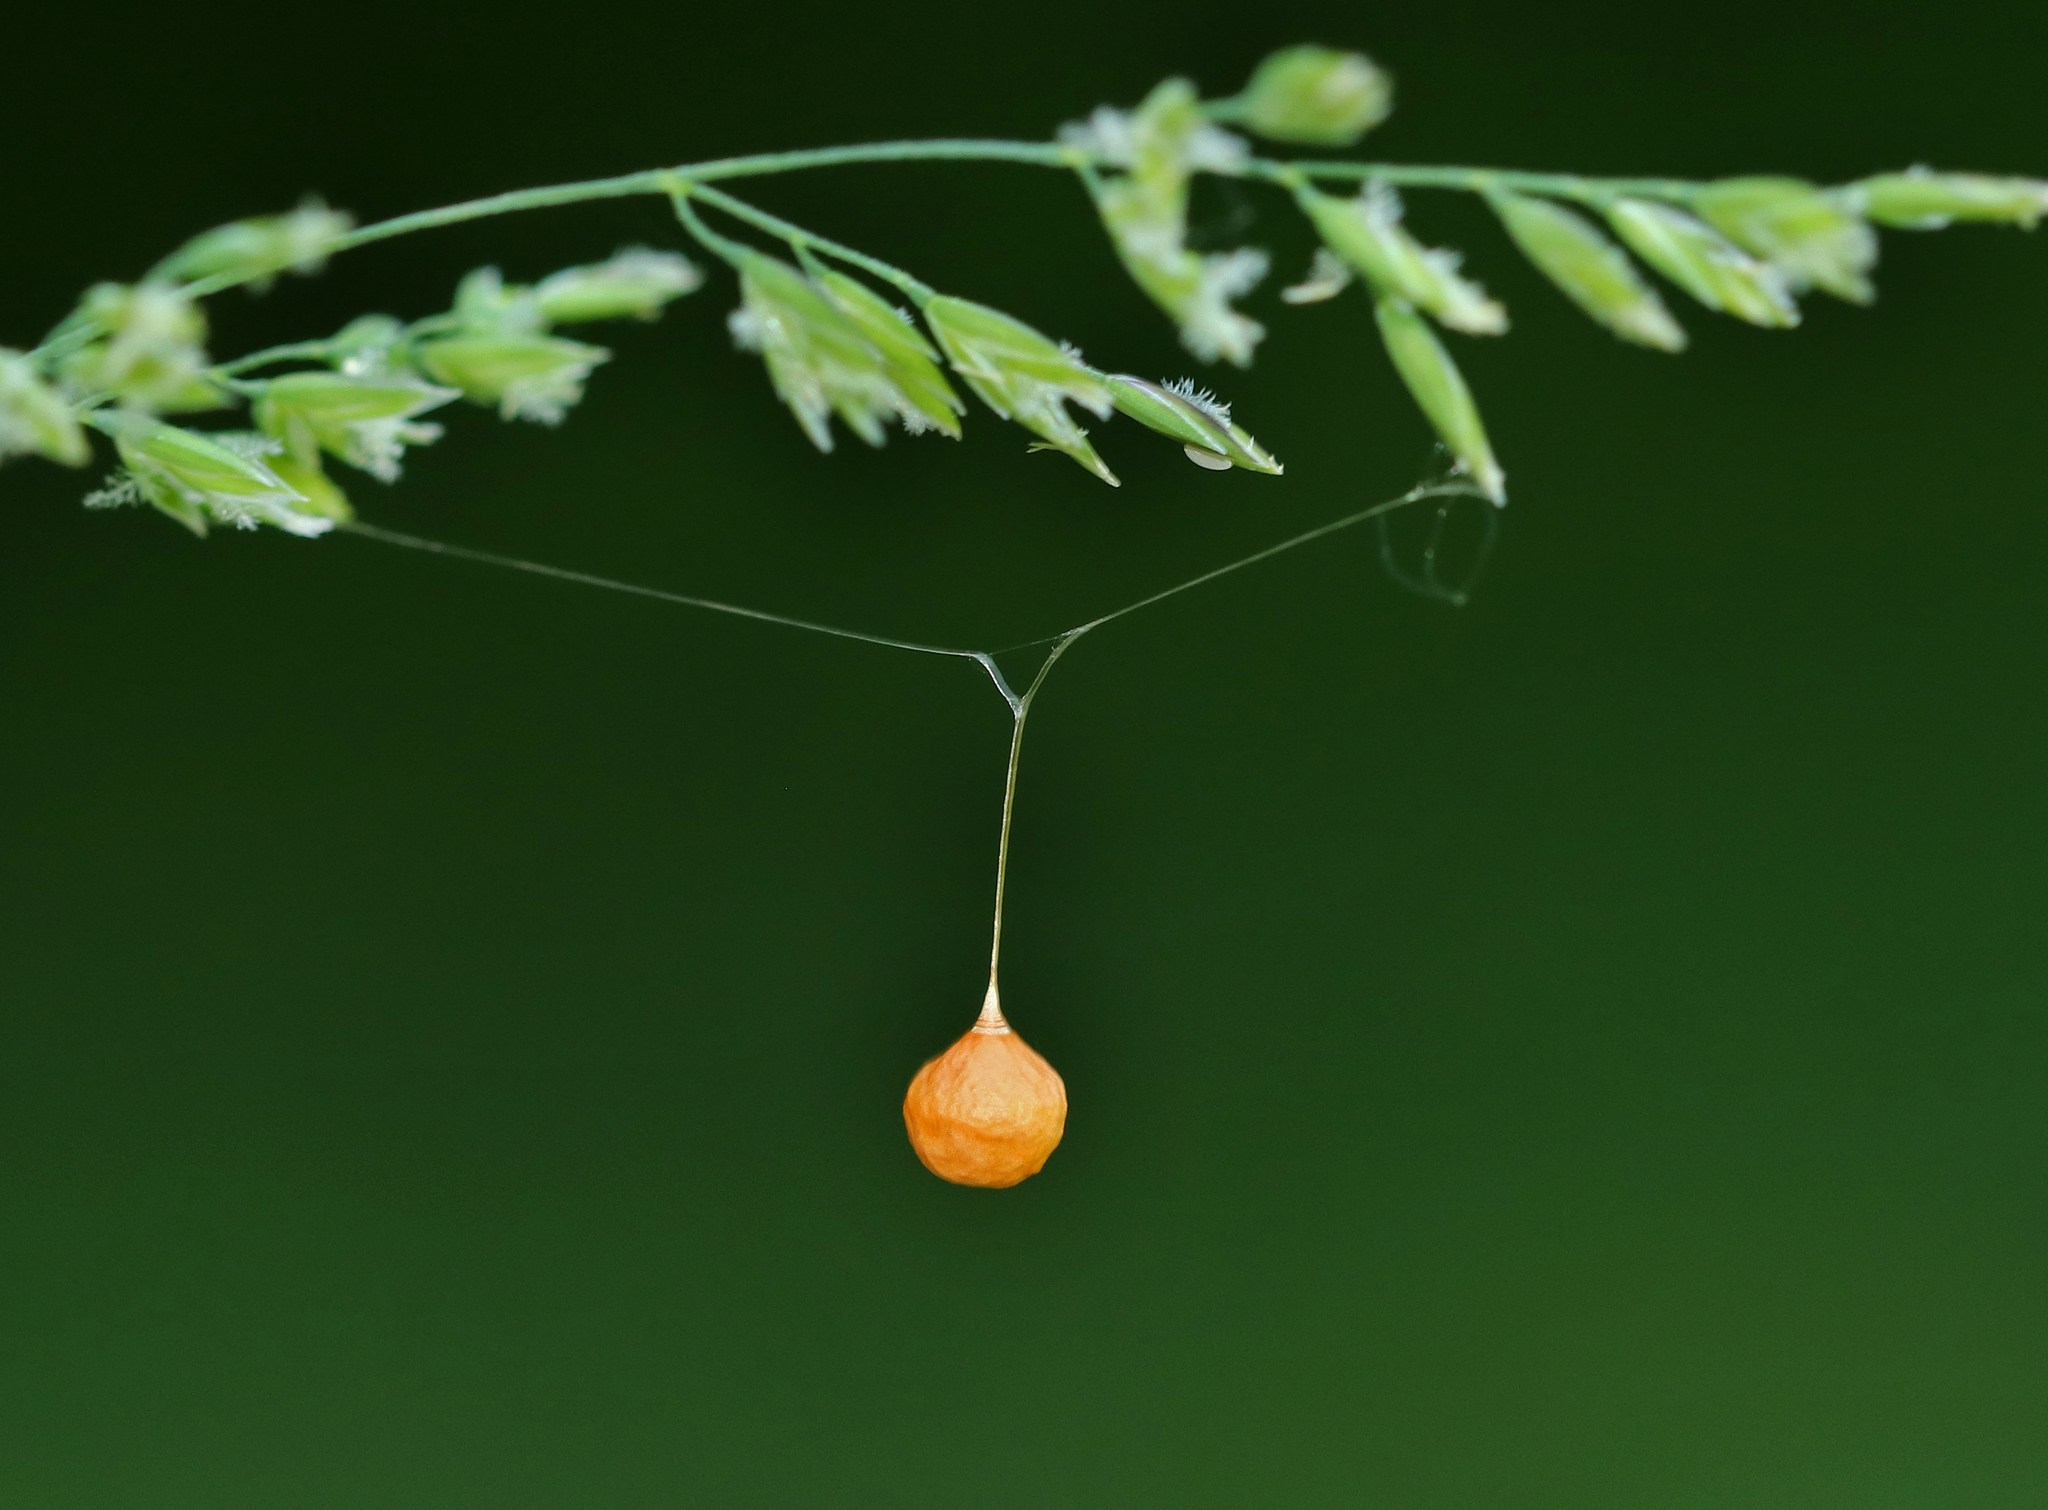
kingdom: Animalia
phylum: Arthropoda
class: Arachnida
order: Araneae
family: Theridiosomatidae
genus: Theridiosoma
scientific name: Theridiosoma gemmosum
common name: Ray spider
